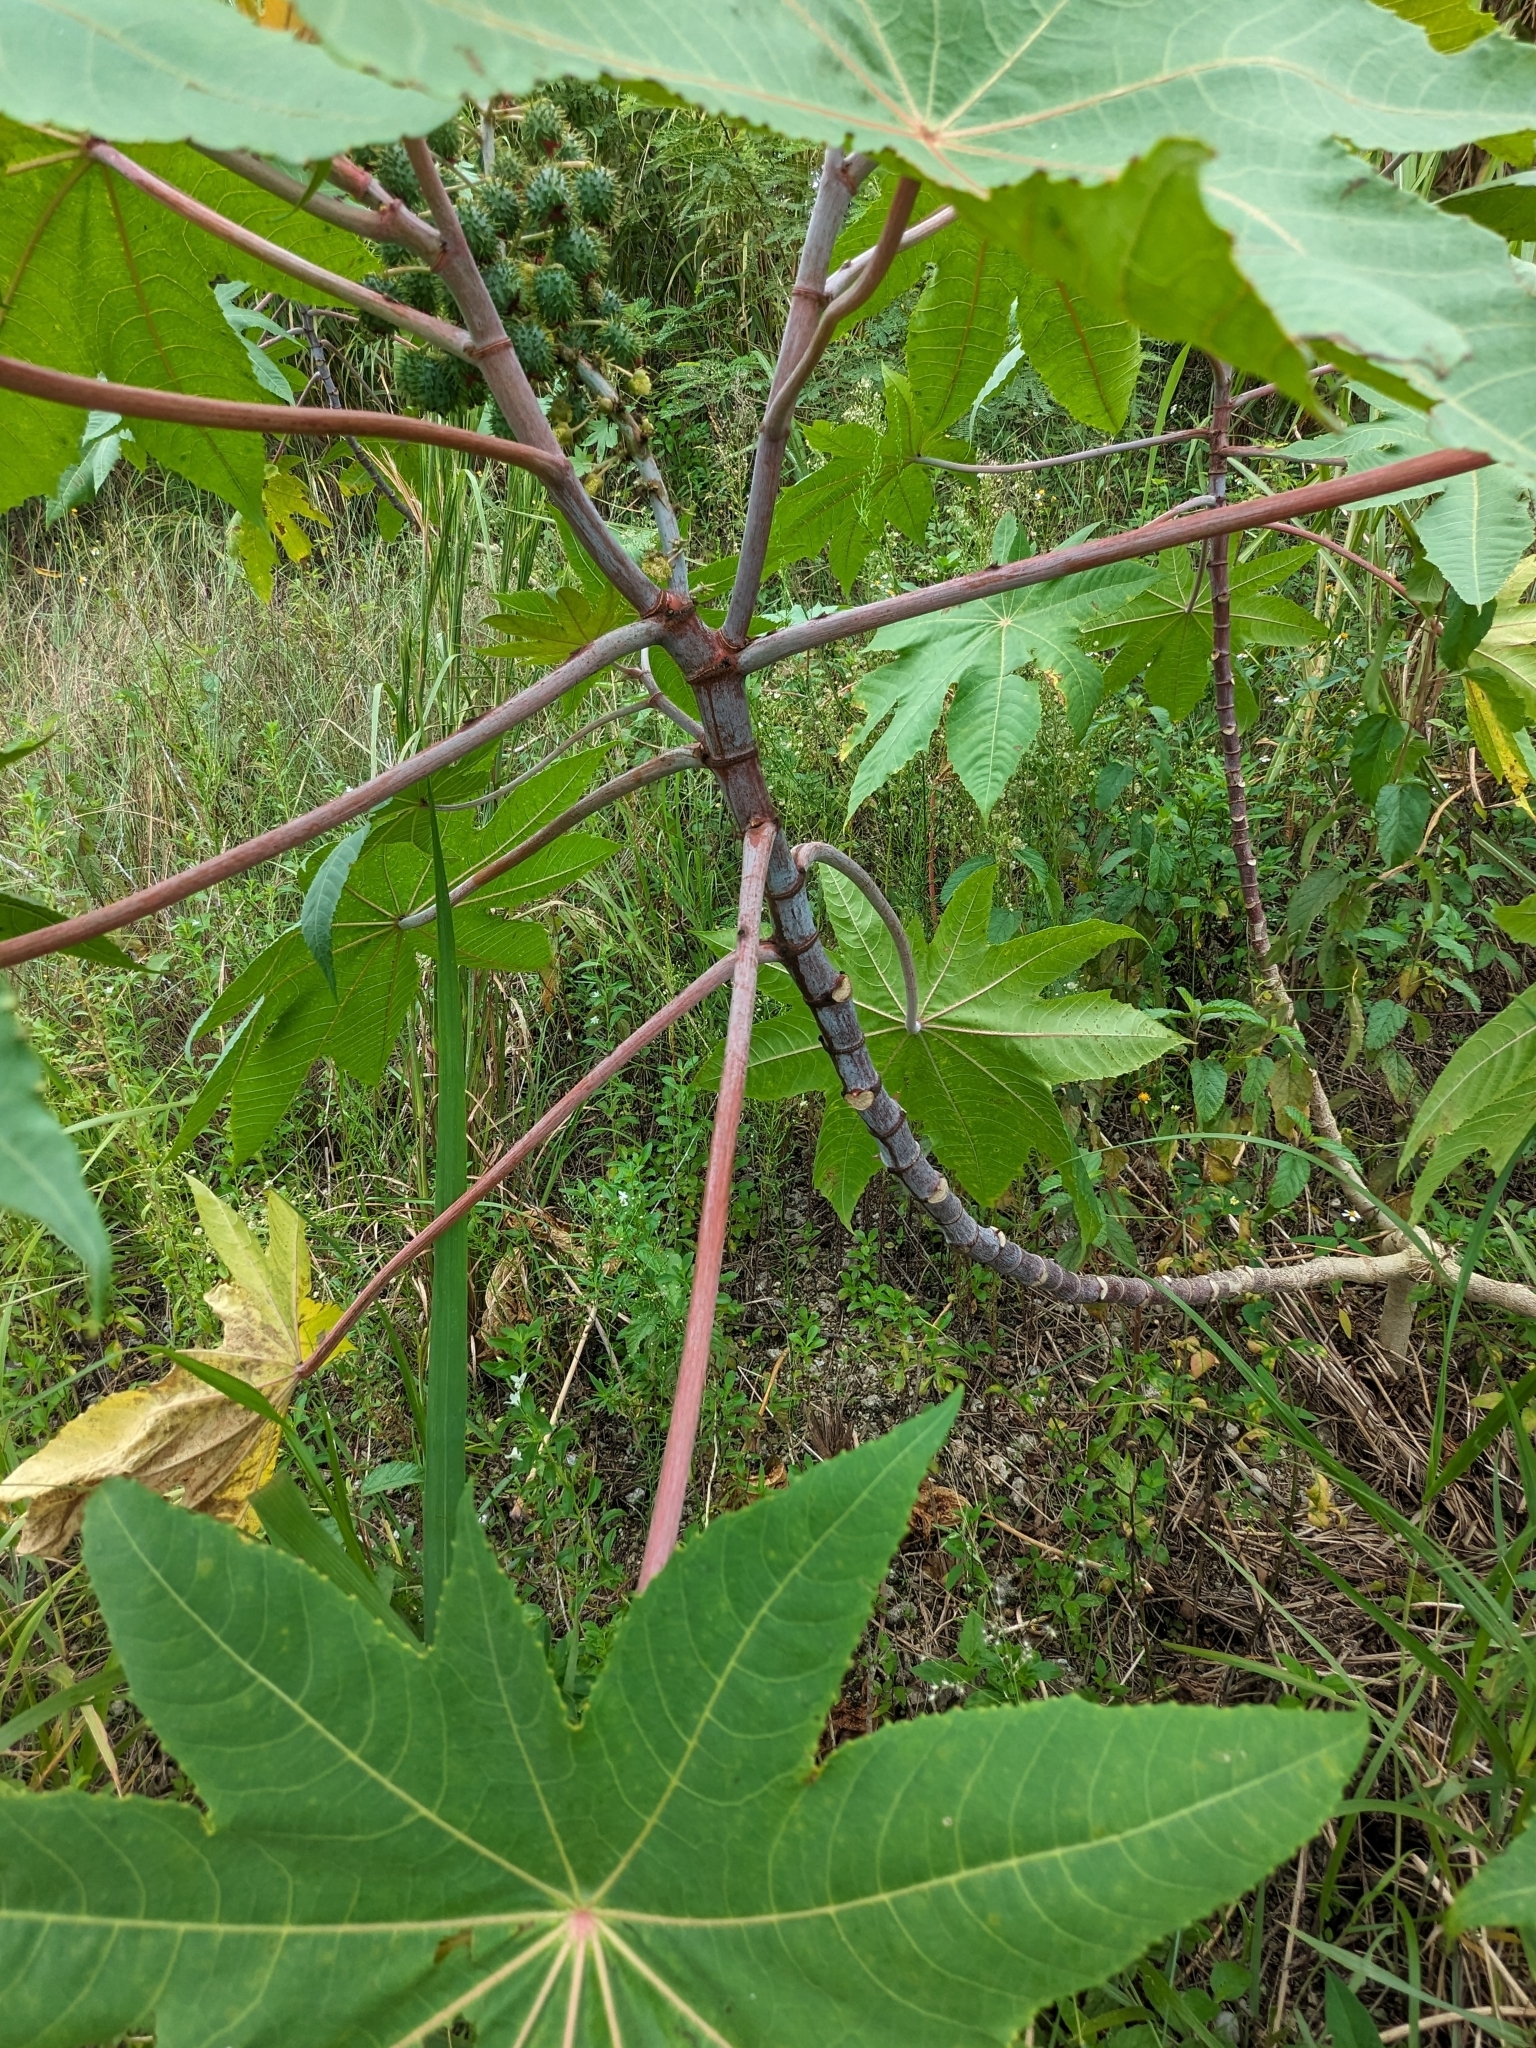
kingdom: Plantae
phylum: Tracheophyta
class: Magnoliopsida
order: Malpighiales
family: Euphorbiaceae
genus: Ricinus
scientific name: Ricinus communis
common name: Castor-oil-plant
